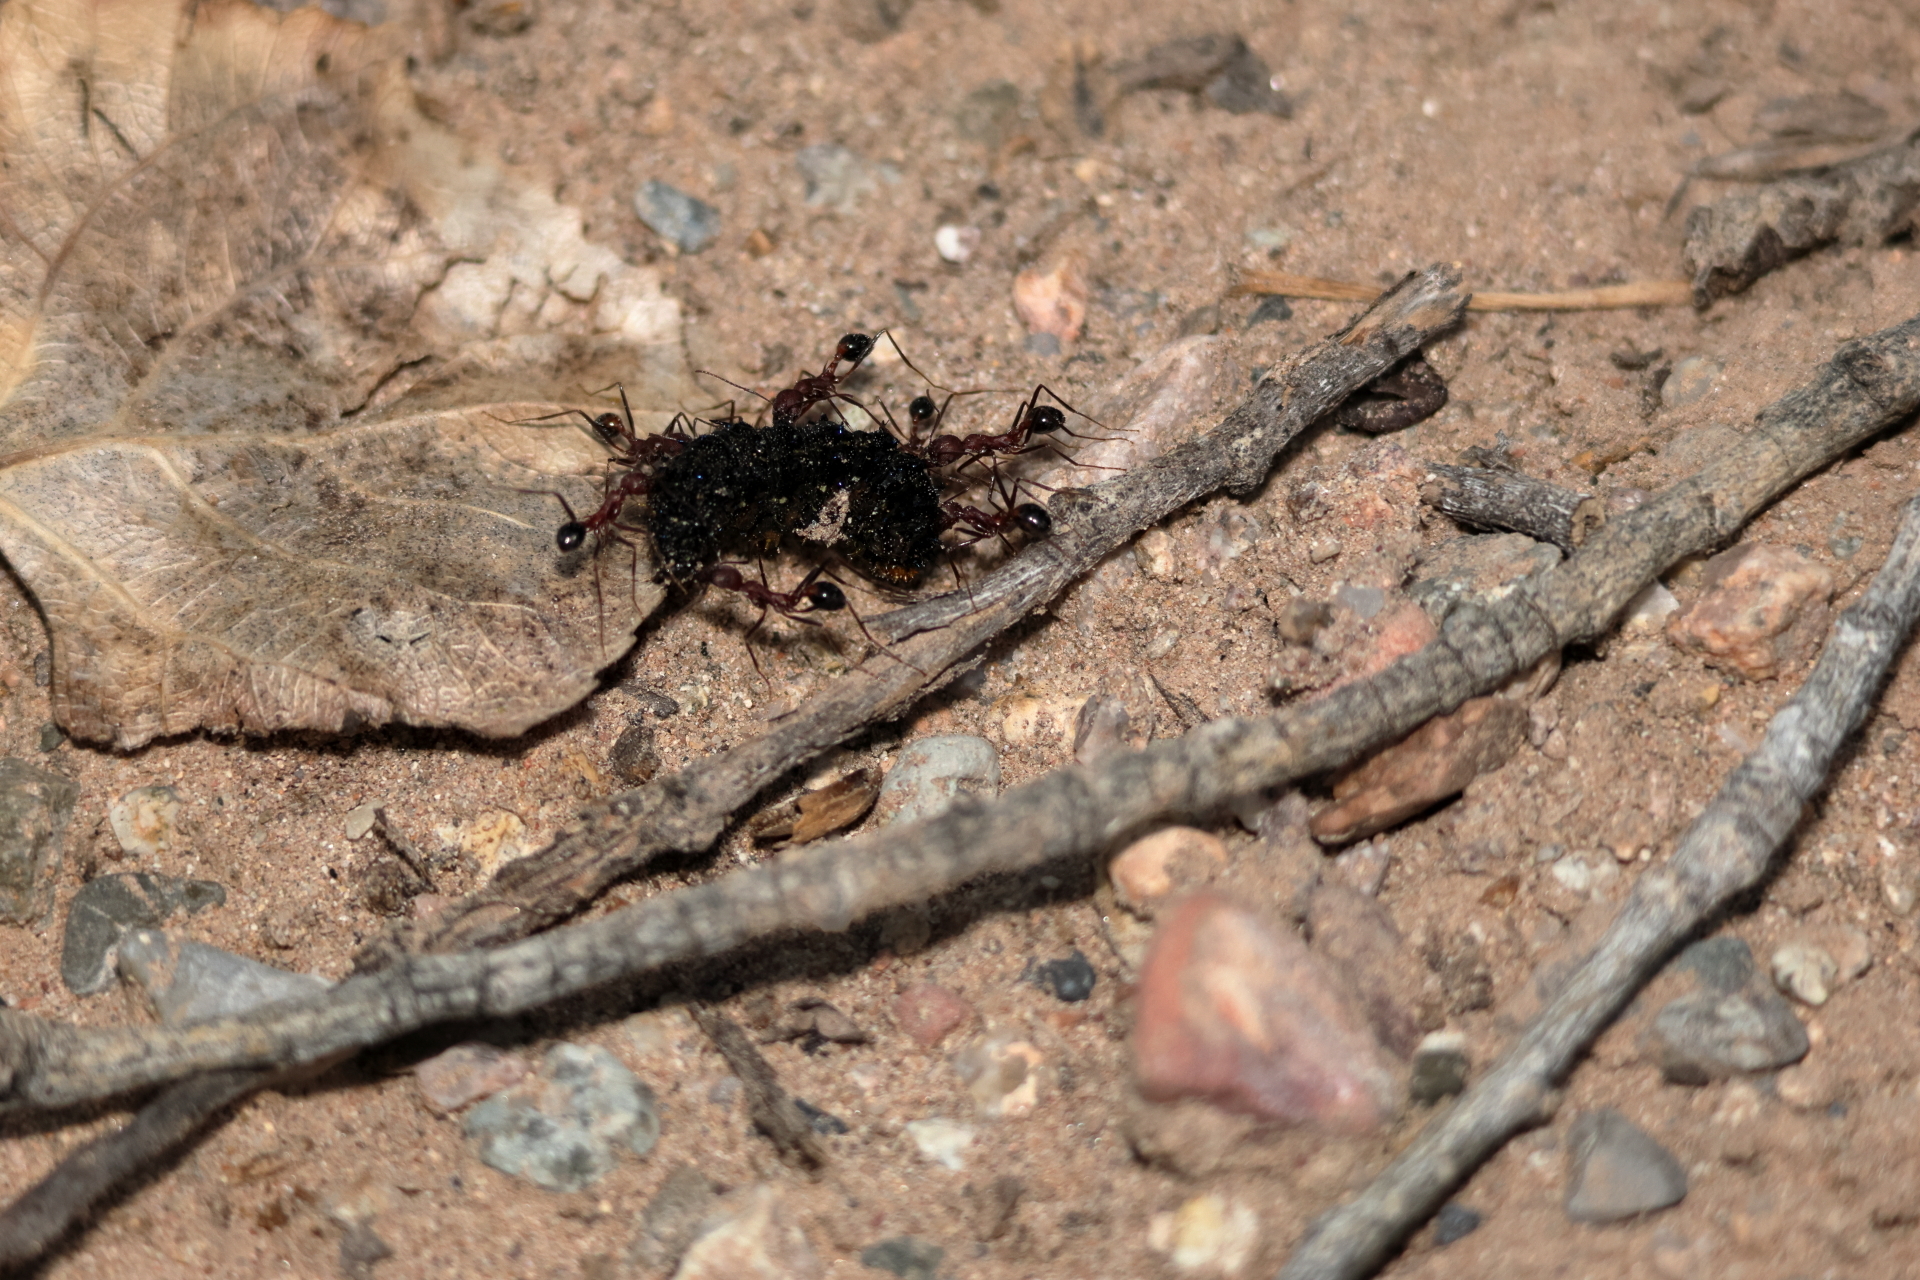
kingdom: Animalia
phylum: Arthropoda
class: Insecta
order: Hymenoptera
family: Formicidae
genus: Novomessor
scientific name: Novomessor albisetosa
